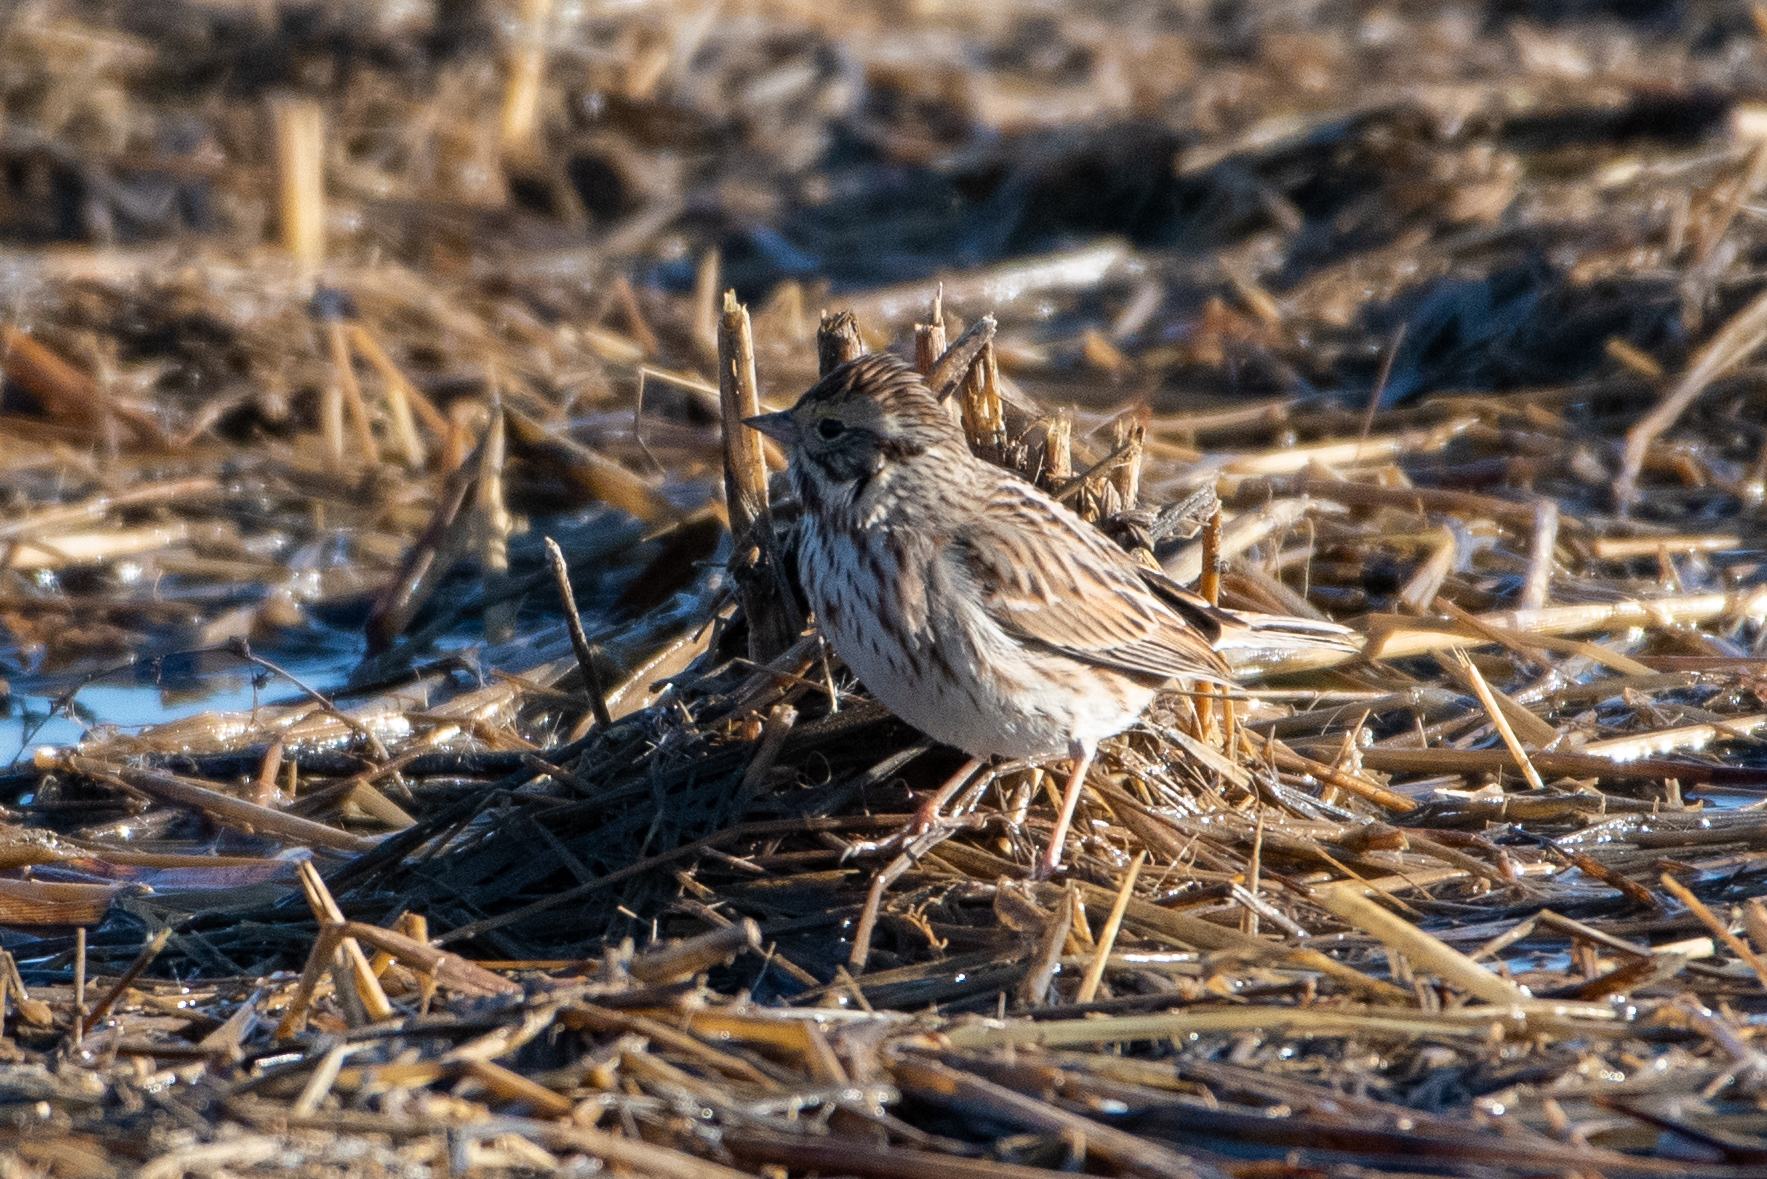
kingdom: Animalia
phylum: Chordata
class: Aves
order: Passeriformes
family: Passerellidae
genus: Passerculus
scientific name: Passerculus sandwichensis
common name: Savannah sparrow
